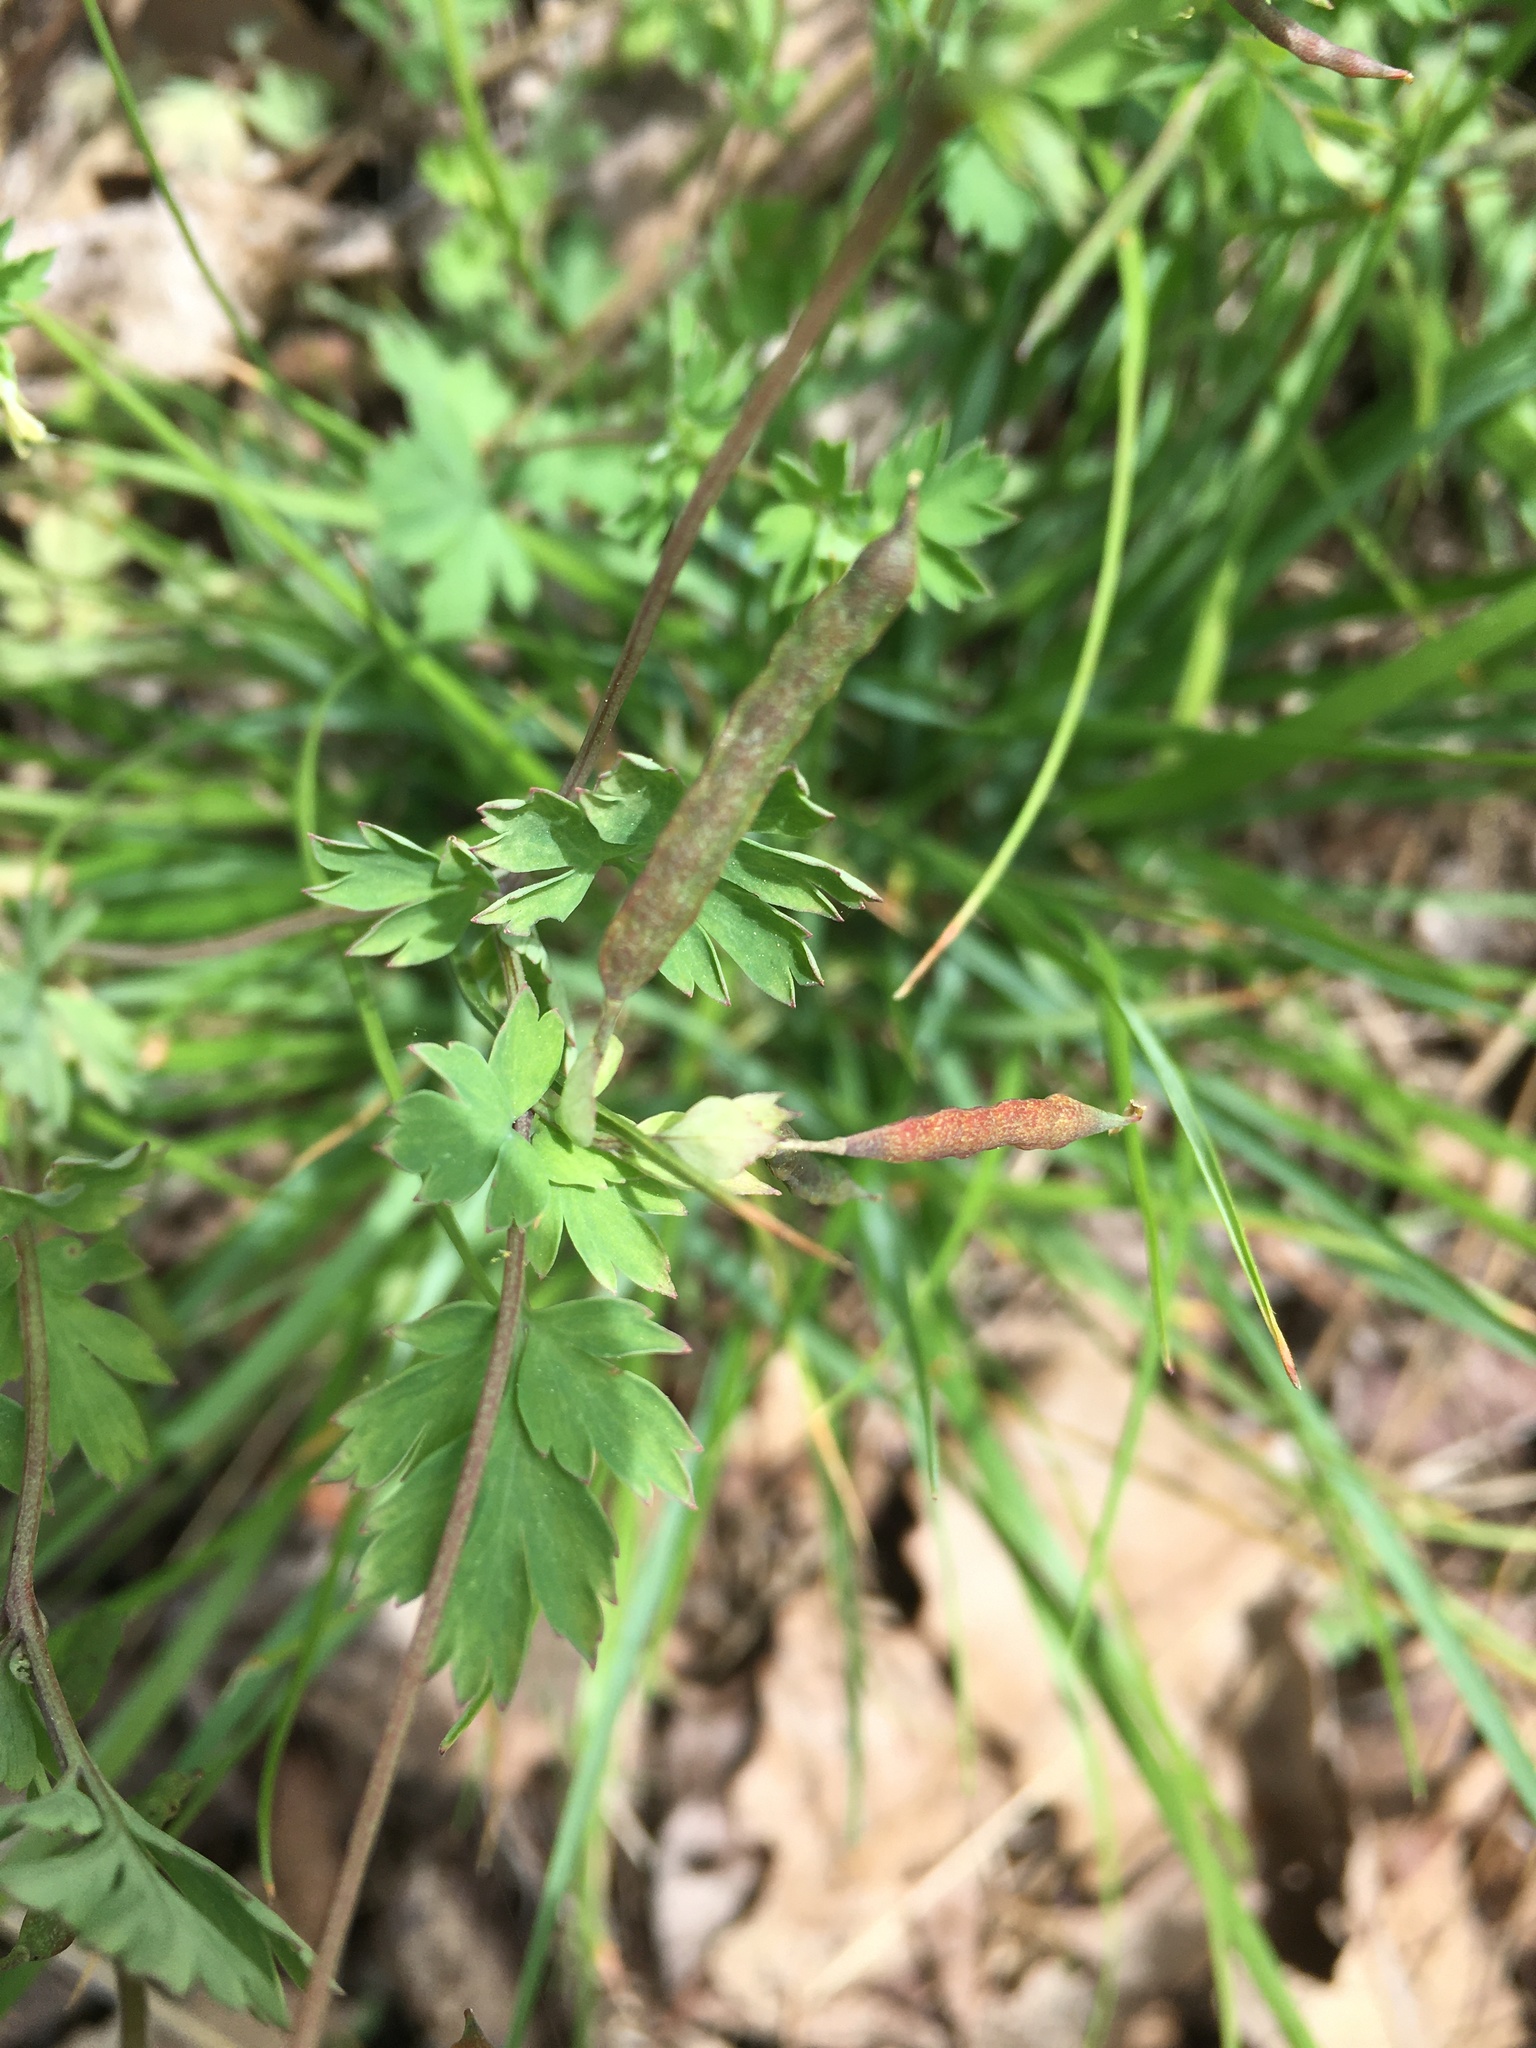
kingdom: Plantae
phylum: Tracheophyta
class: Magnoliopsida
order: Ranunculales
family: Papaveraceae
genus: Corydalis
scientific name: Corydalis flavula
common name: Yellow corydalis
